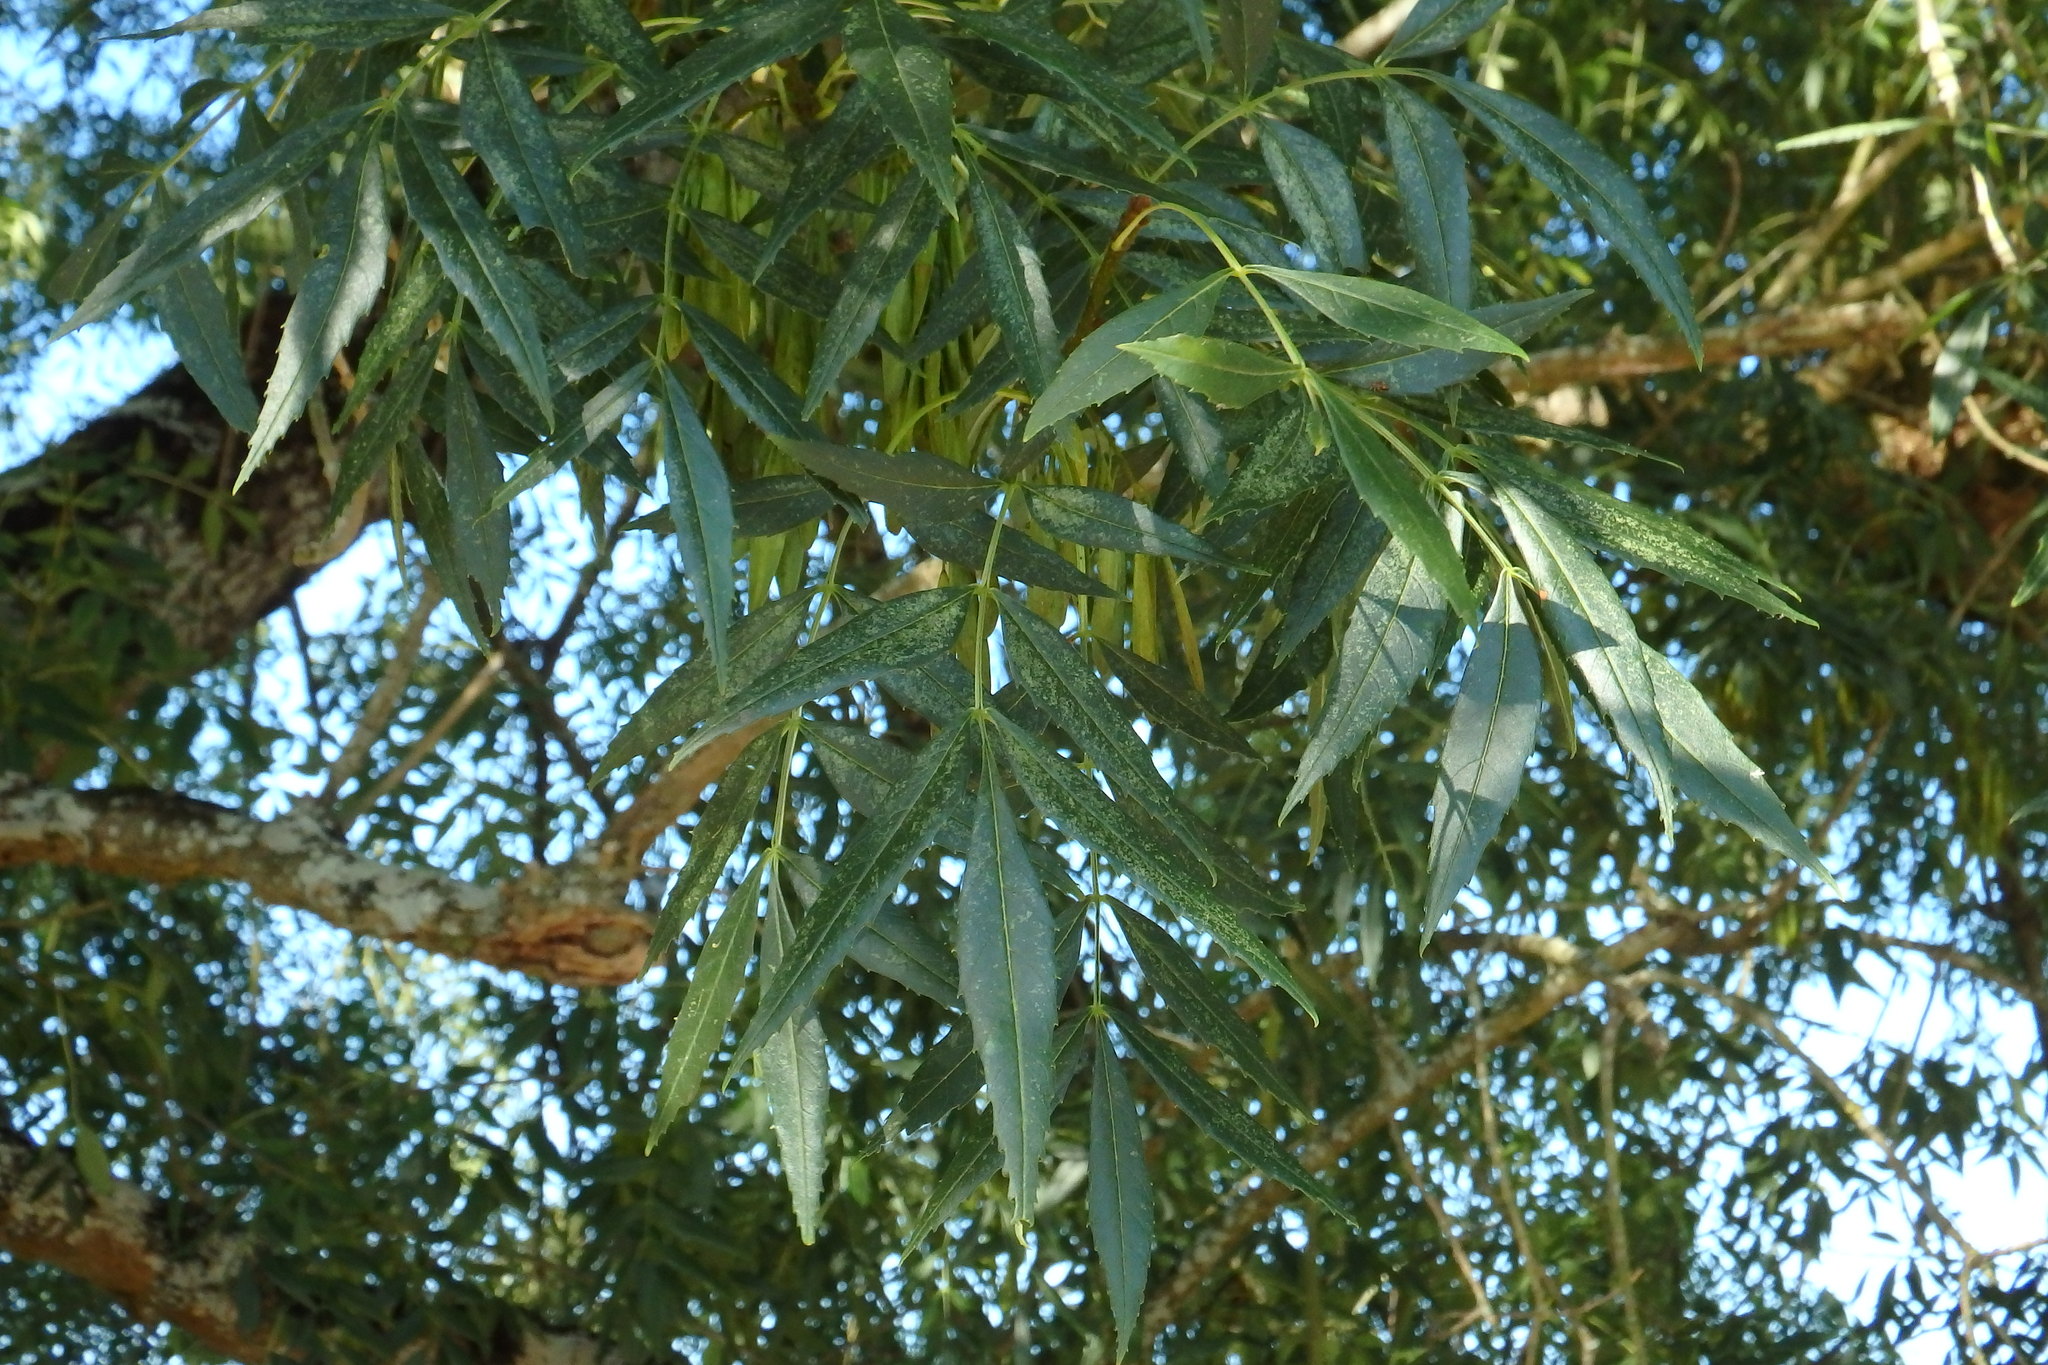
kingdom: Plantae
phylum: Tracheophyta
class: Magnoliopsida
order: Lamiales
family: Oleaceae
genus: Fraxinus
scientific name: Fraxinus angustifolia
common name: Narrow-leafed ash
